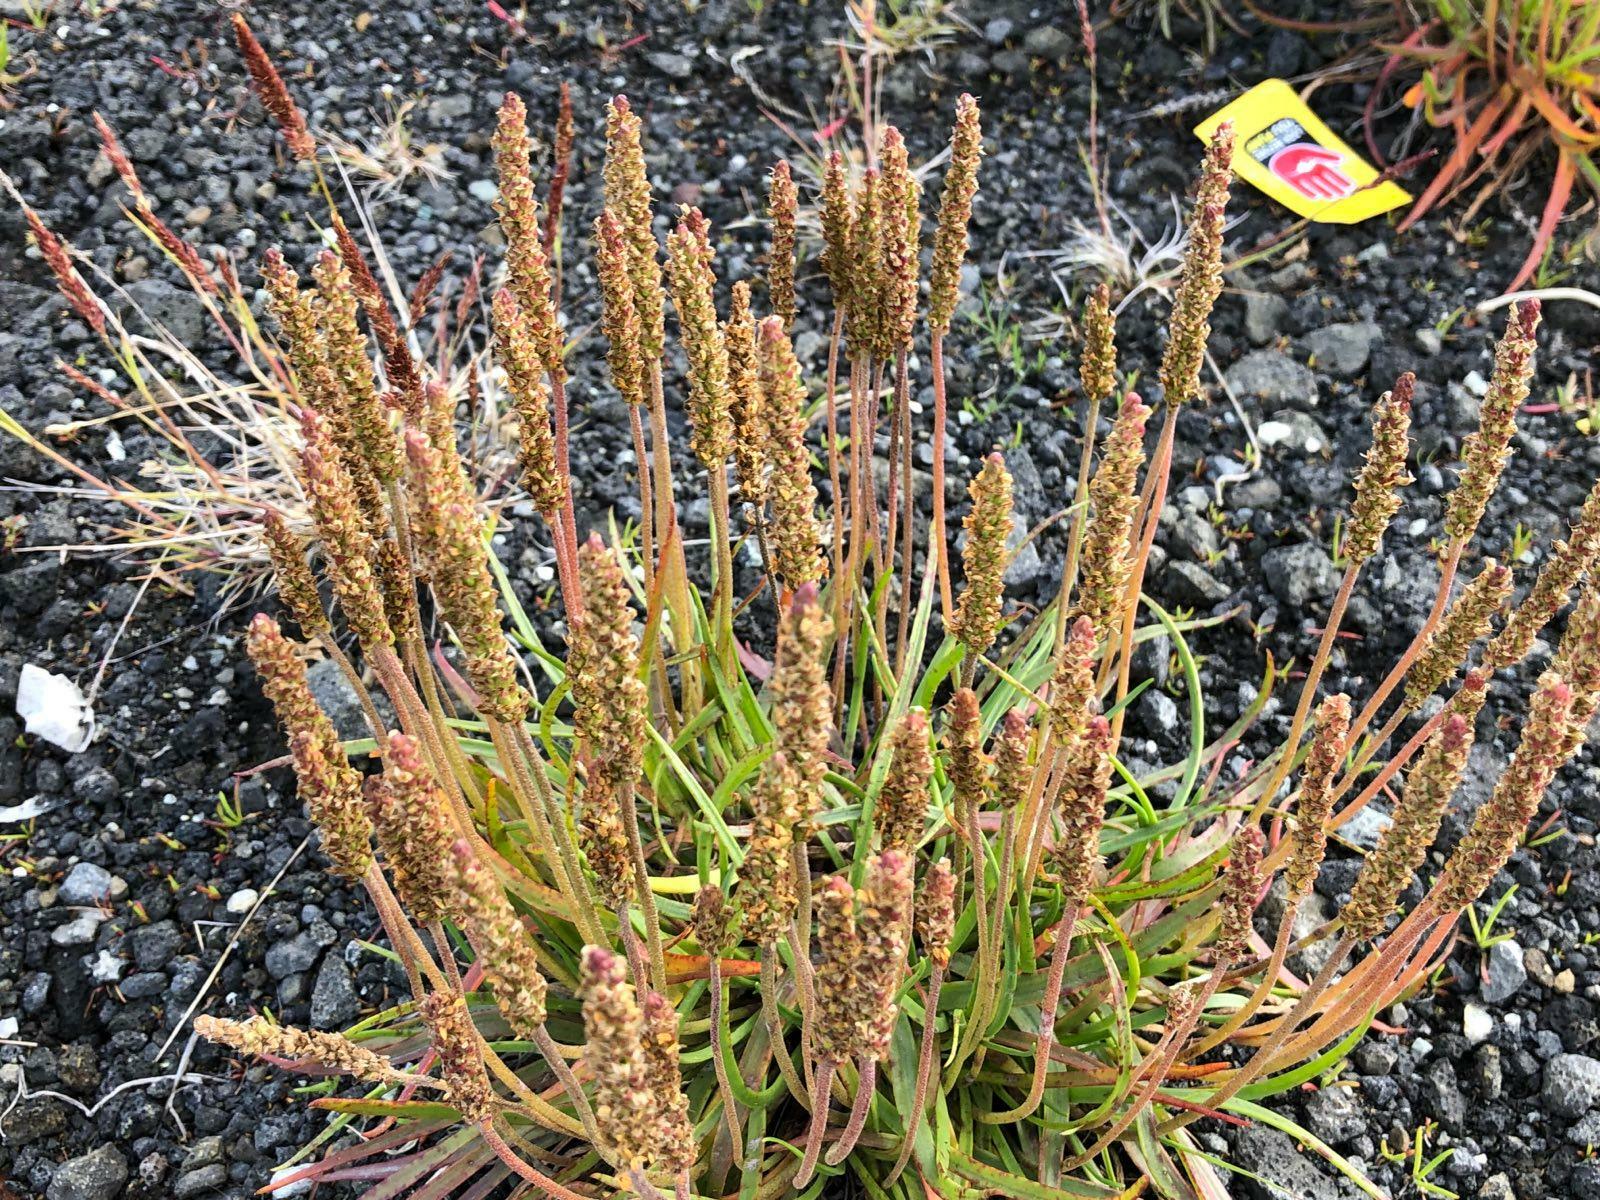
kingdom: Plantae
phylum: Tracheophyta
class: Magnoliopsida
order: Lamiales
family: Plantaginaceae
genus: Plantago
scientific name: Plantago maritima
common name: Sea plantain
